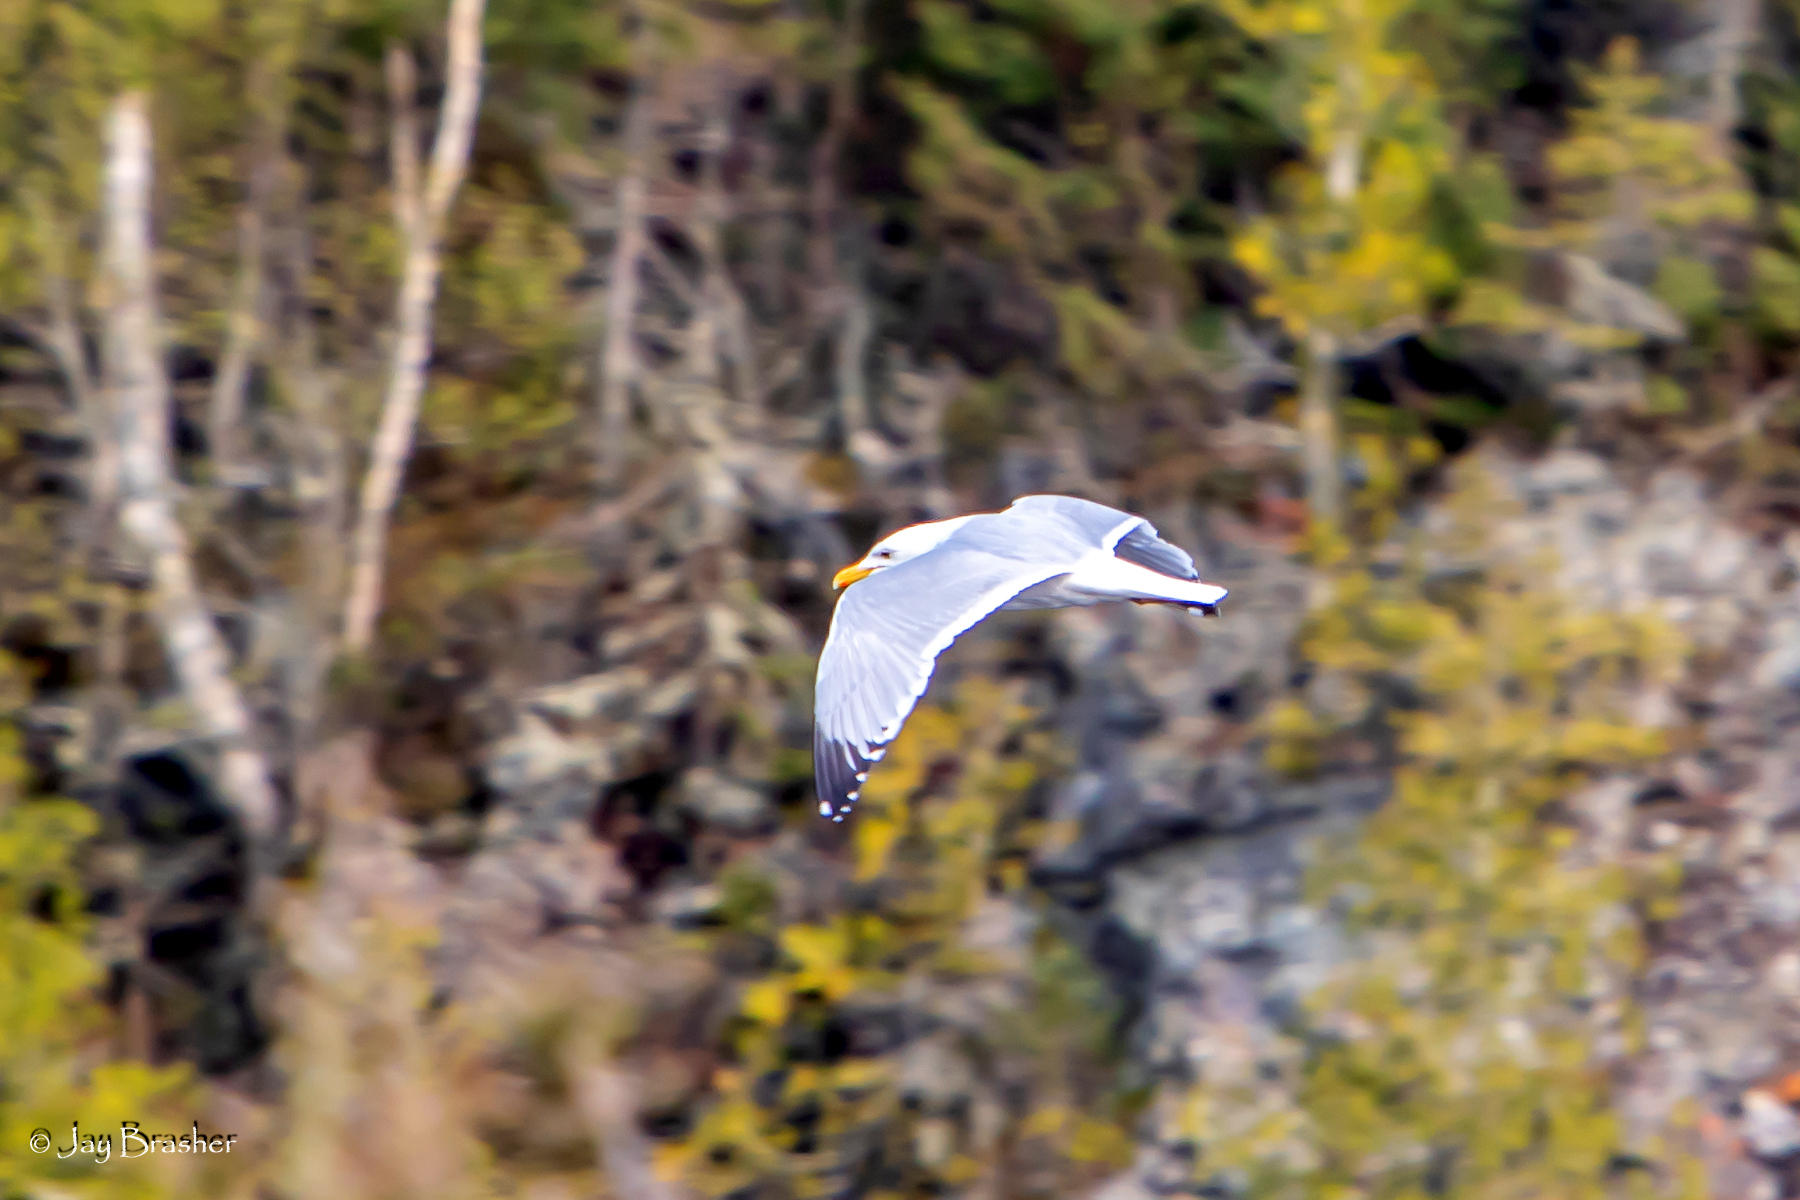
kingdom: Animalia
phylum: Chordata
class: Aves
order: Charadriiformes
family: Laridae
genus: Larus
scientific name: Larus argentatus
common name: Herring gull
